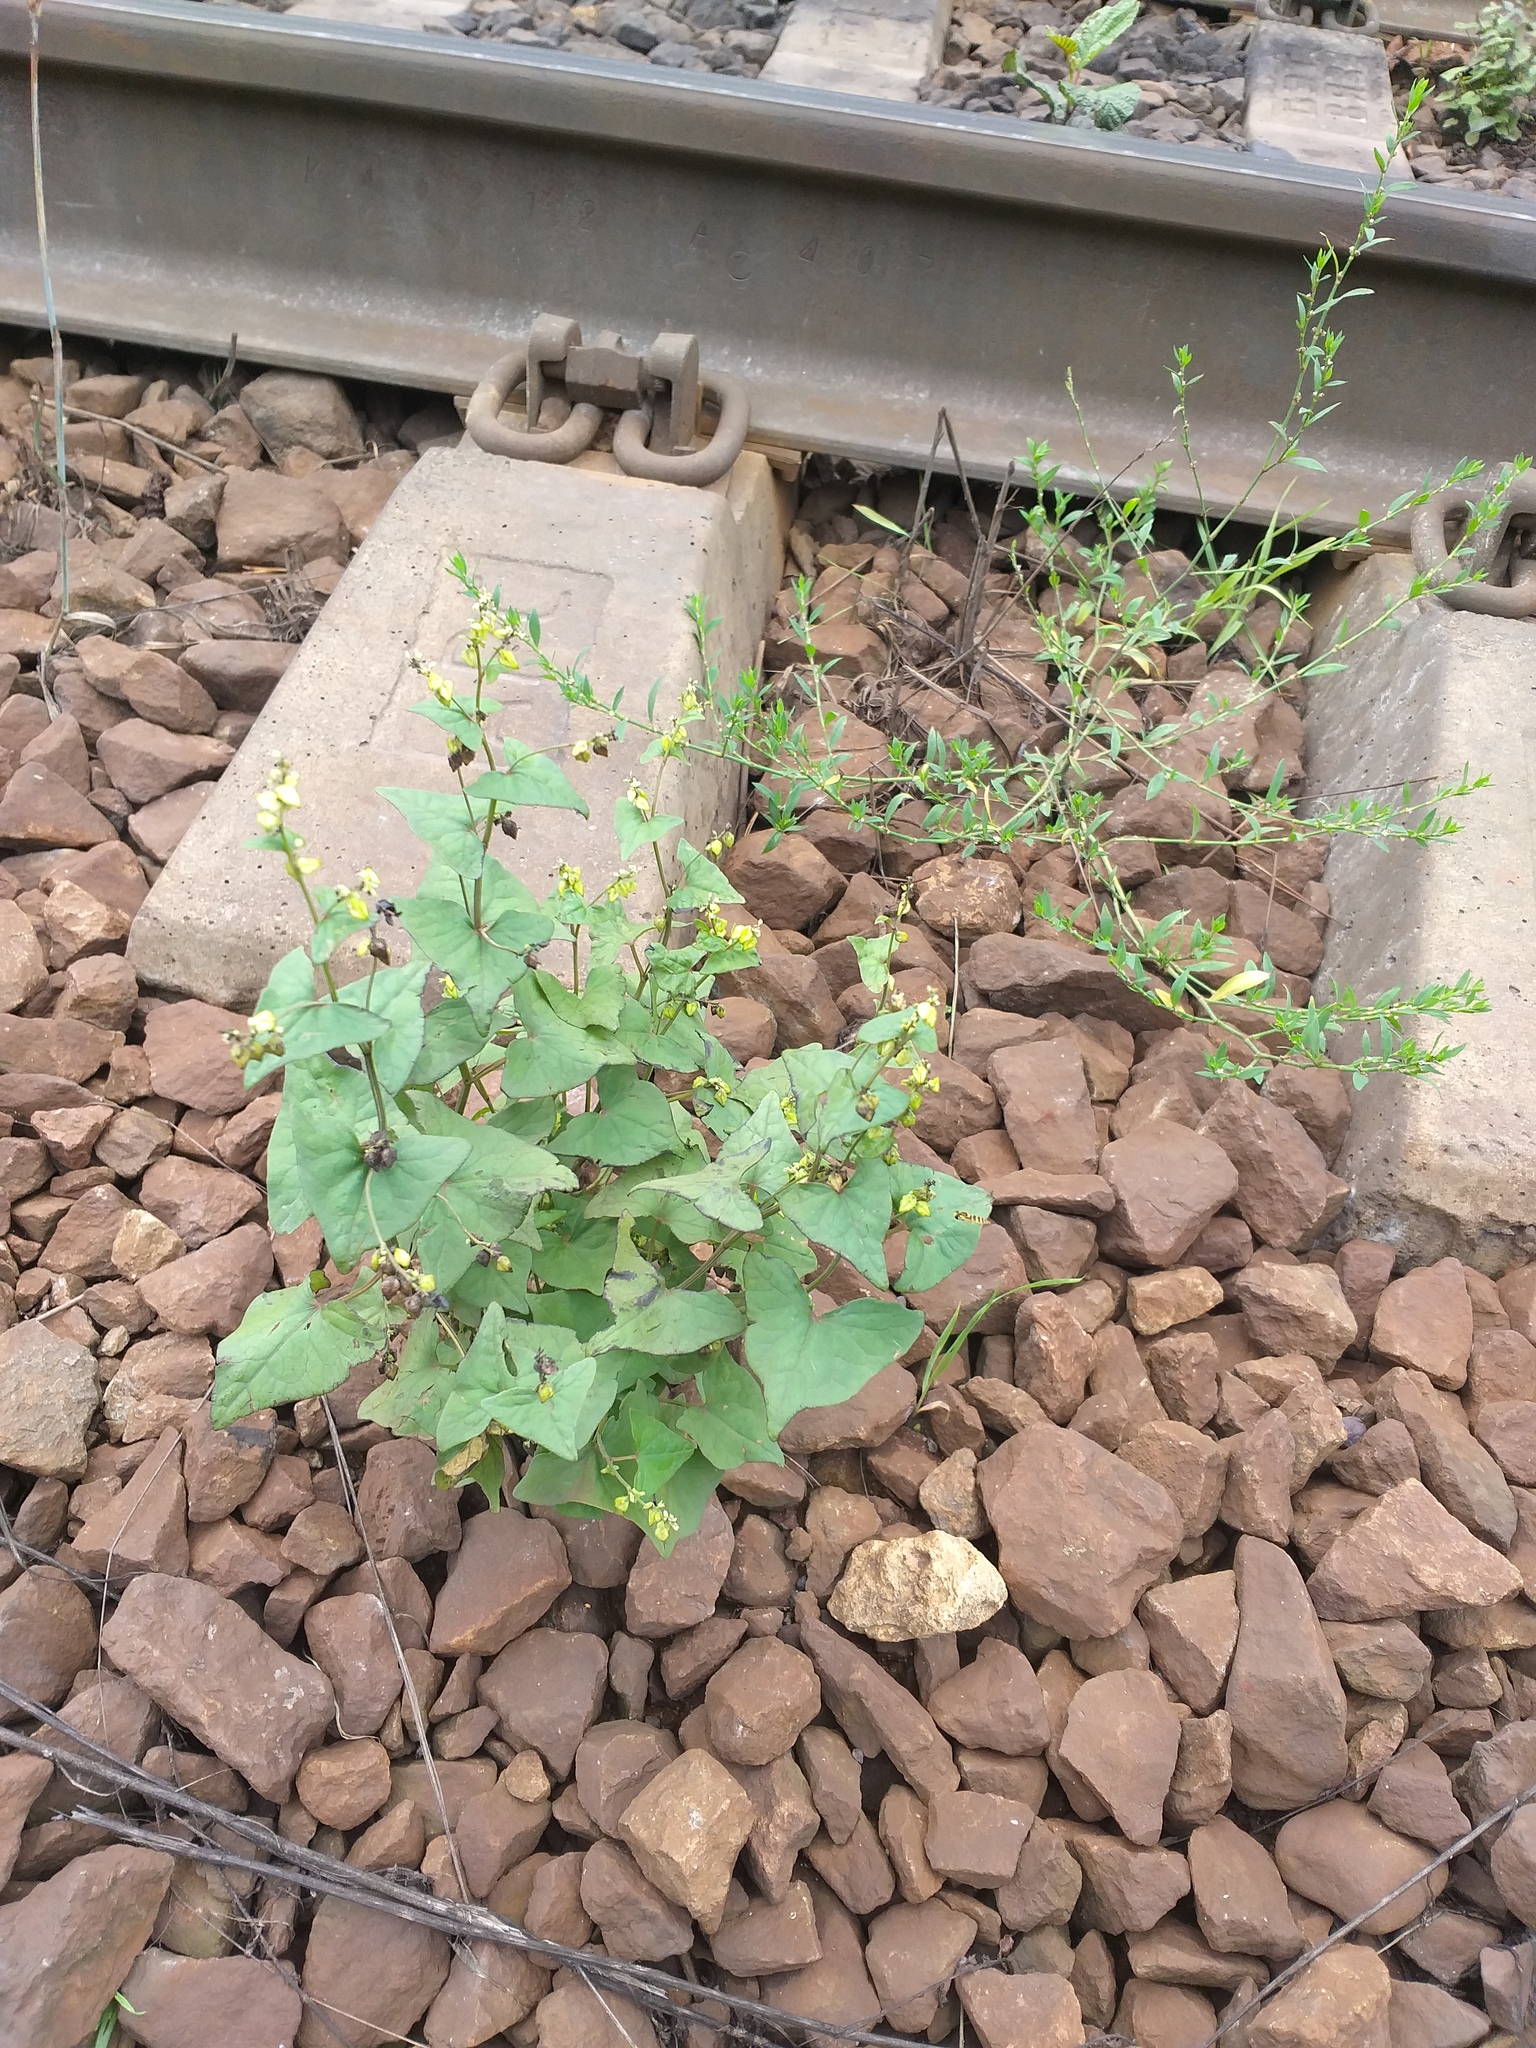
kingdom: Plantae
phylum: Tracheophyta
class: Magnoliopsida
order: Caryophyllales
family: Polygonaceae
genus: Fagopyrum
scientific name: Fagopyrum tataricum
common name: Green buckwheat
